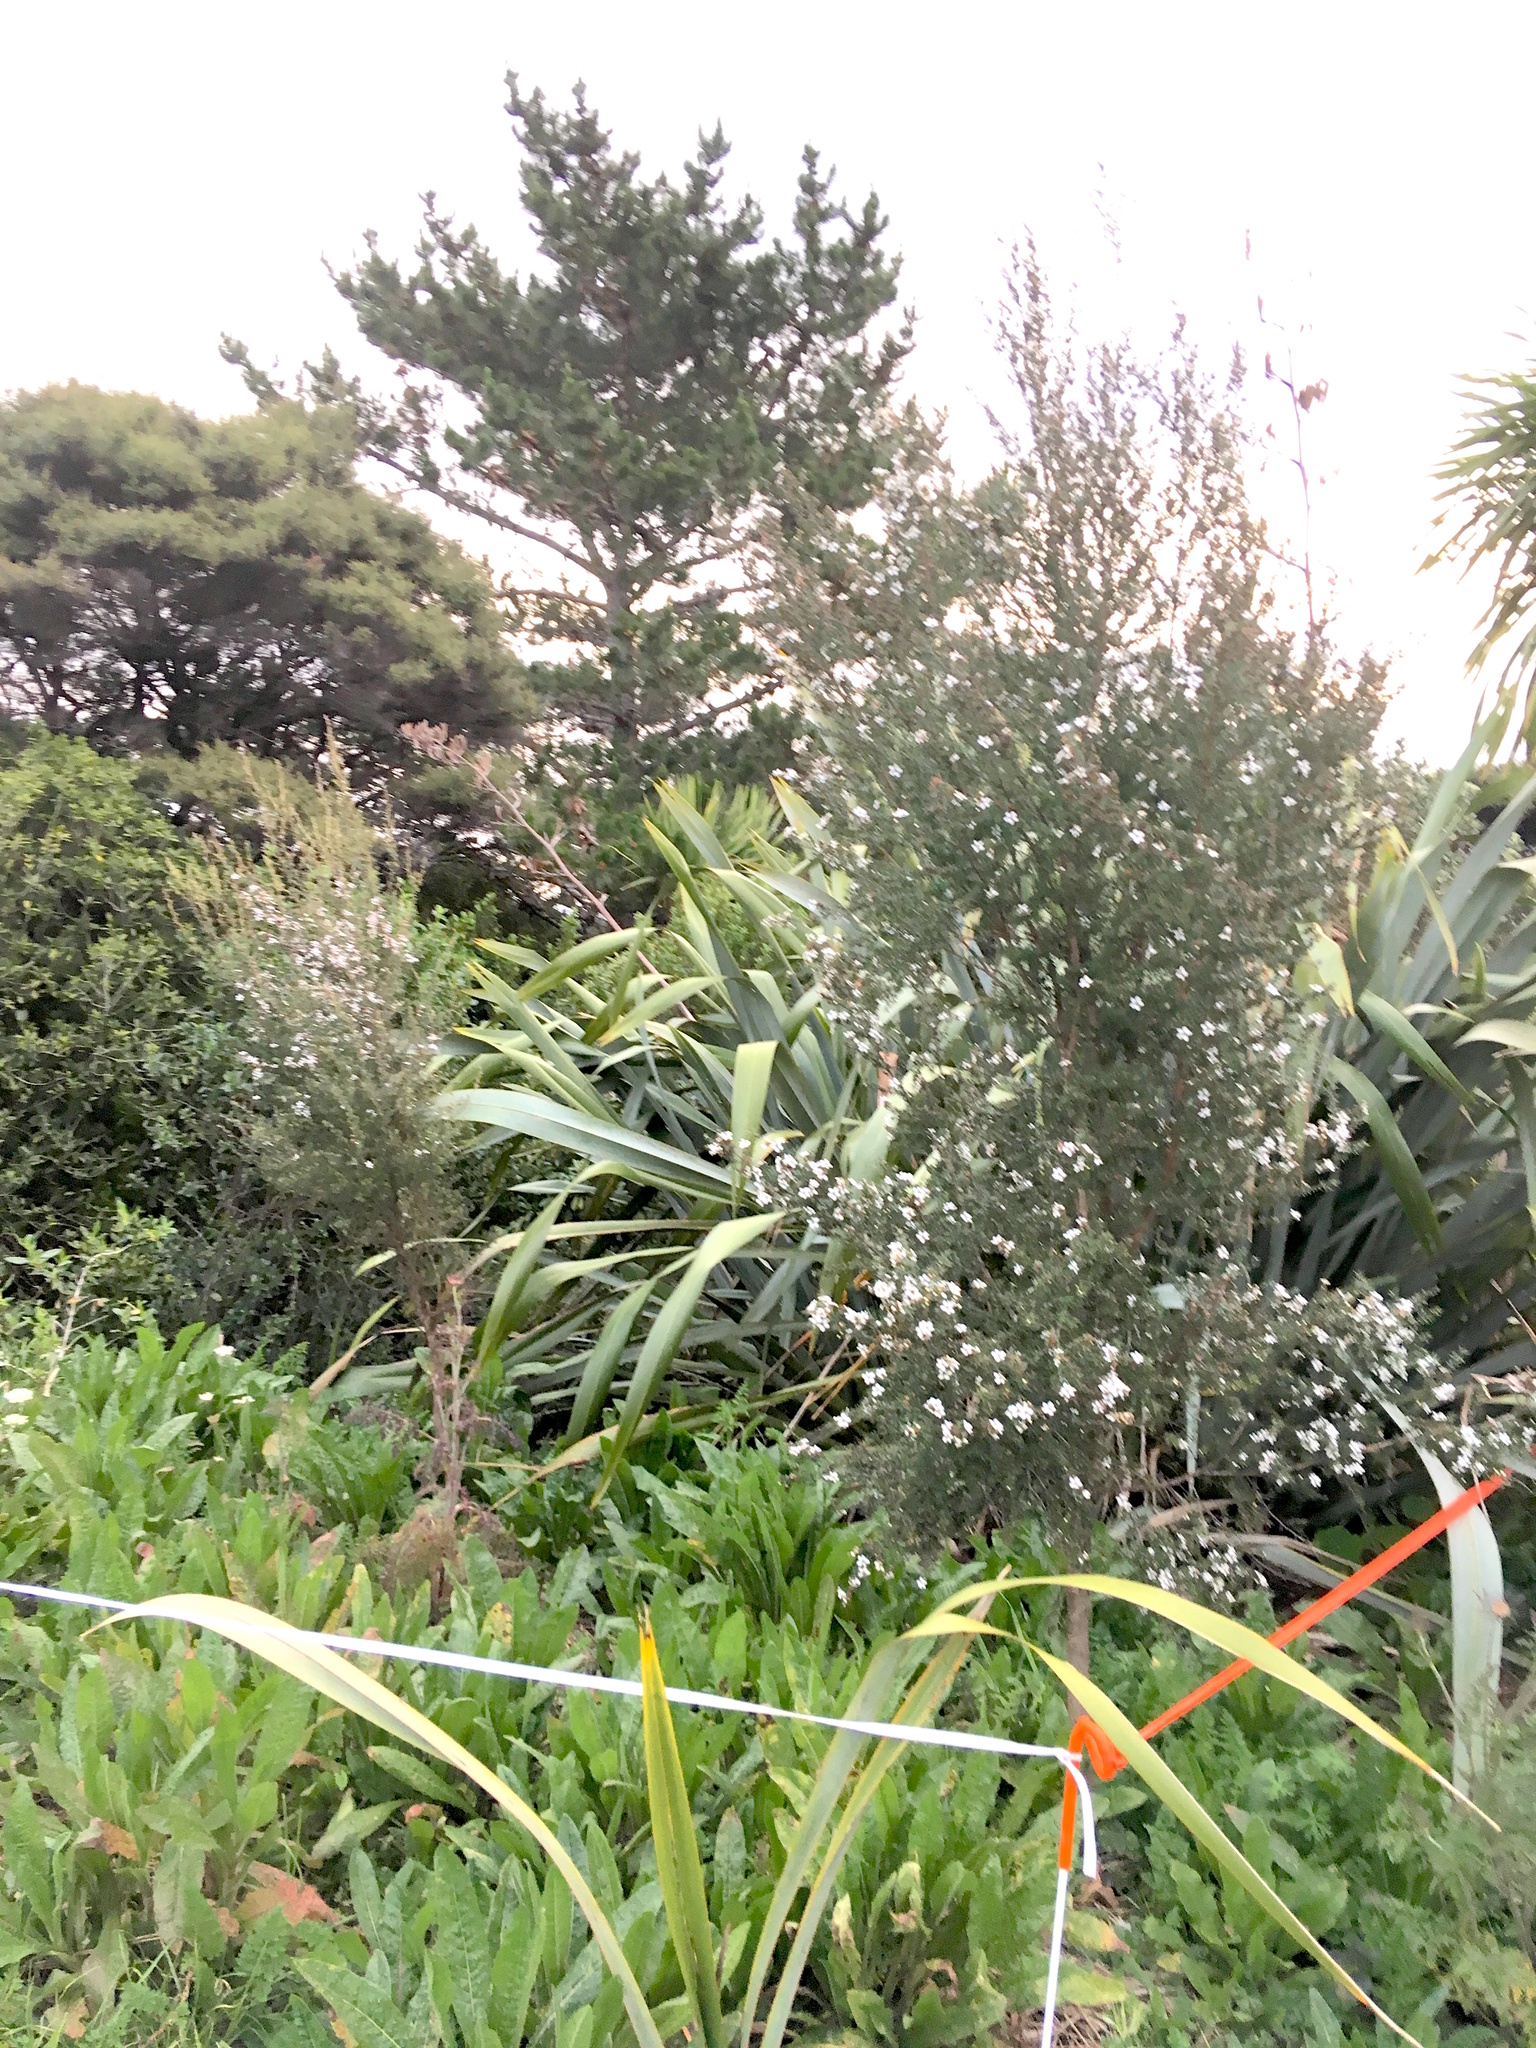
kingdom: Plantae
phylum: Tracheophyta
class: Magnoliopsida
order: Asterales
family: Asteraceae
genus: Helminthotheca
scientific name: Helminthotheca echioides
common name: Ox-tongue
